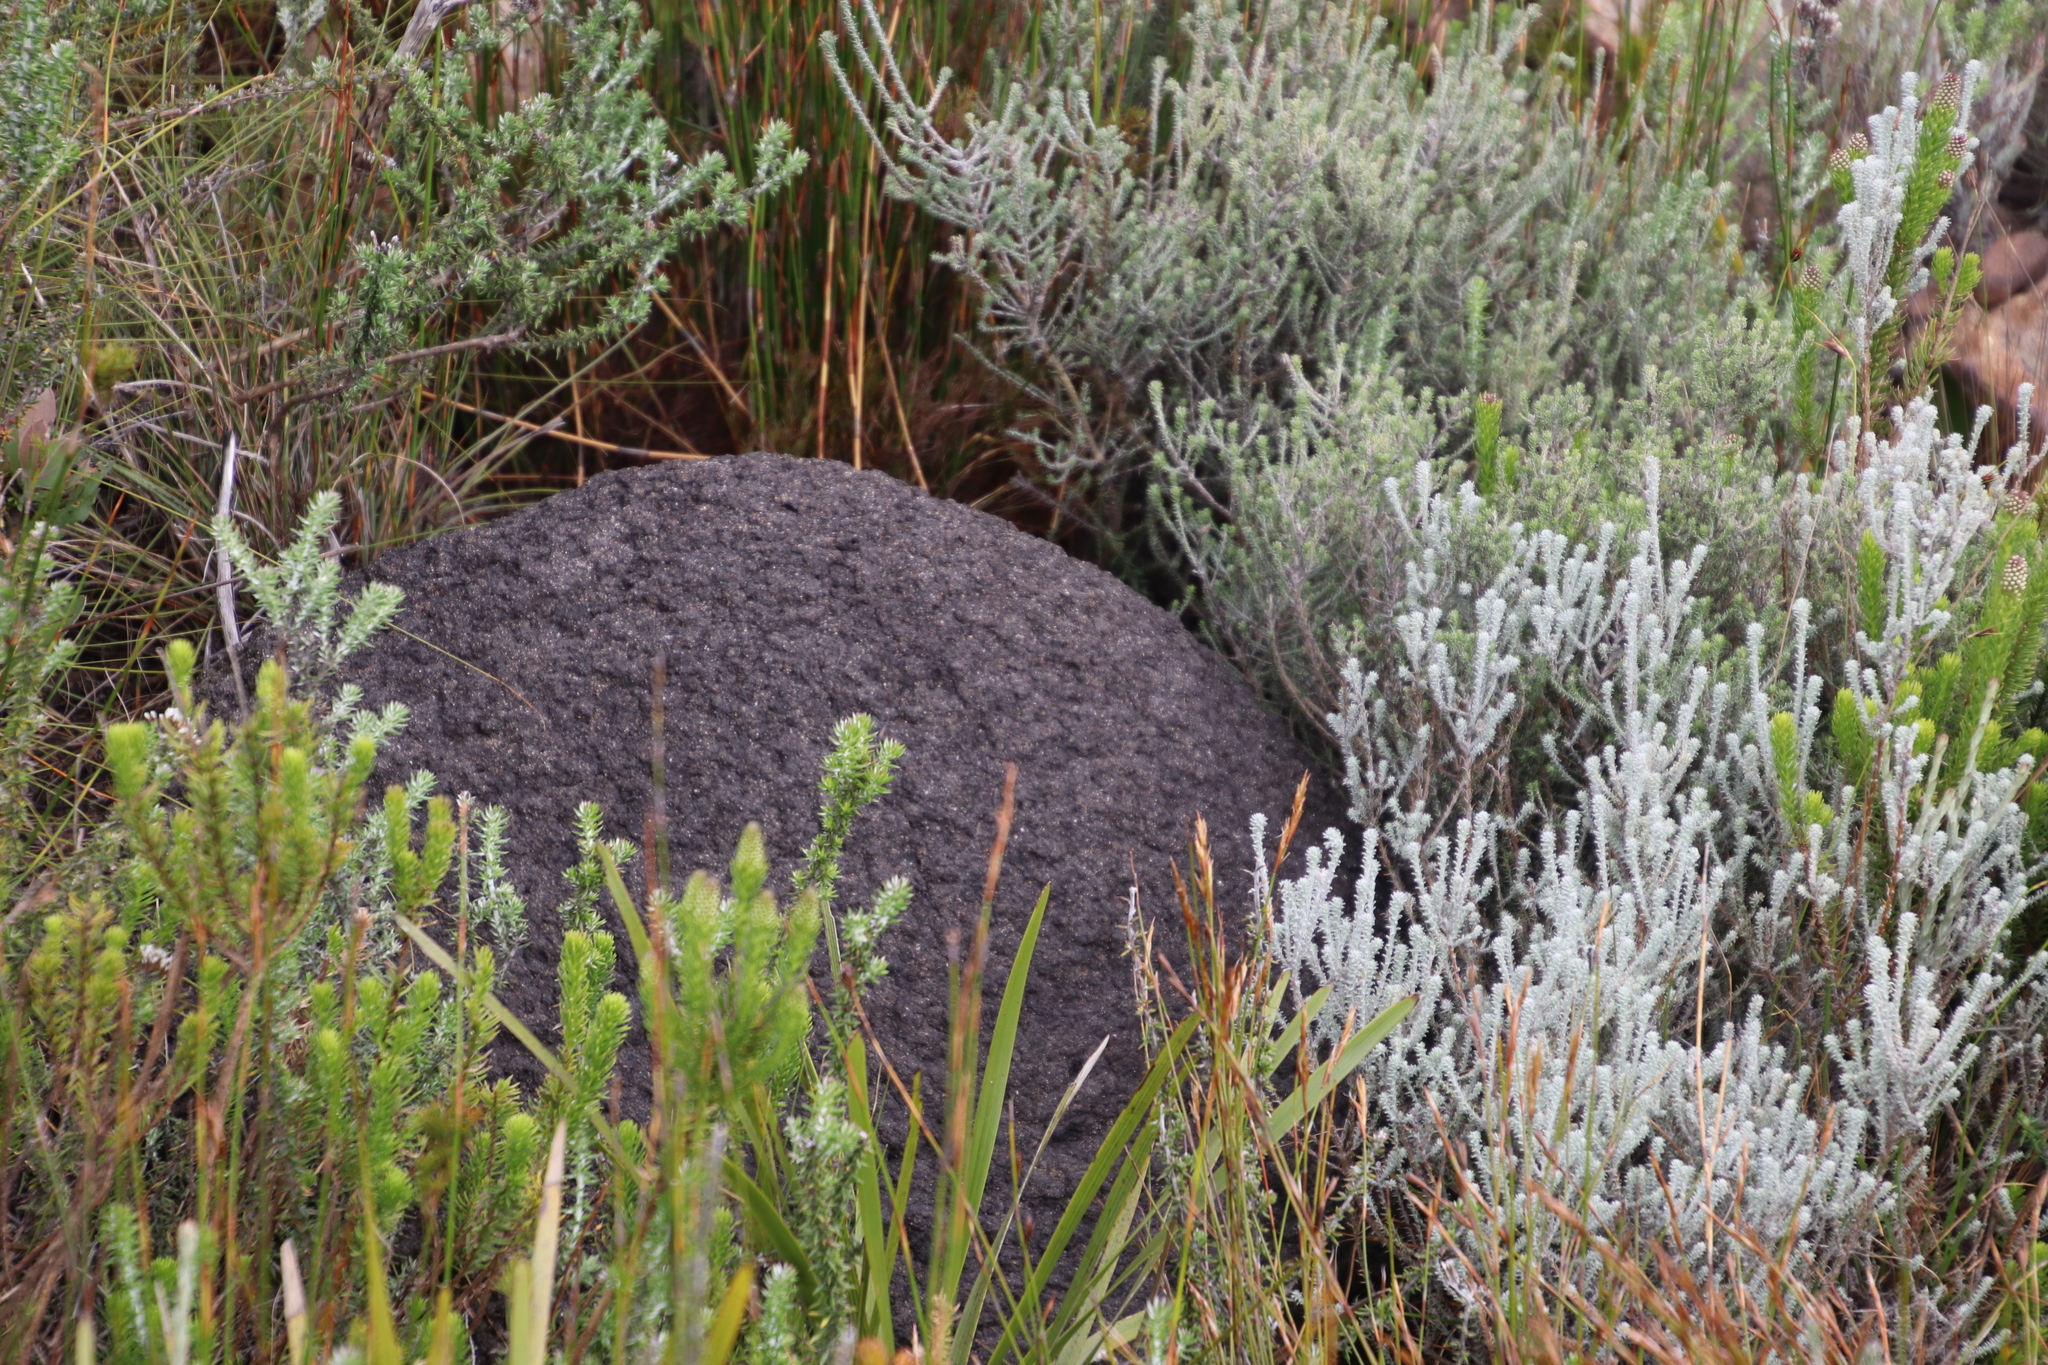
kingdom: Animalia
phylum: Arthropoda
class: Insecta
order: Blattodea
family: Termitidae
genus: Amitermes
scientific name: Amitermes hastatus
